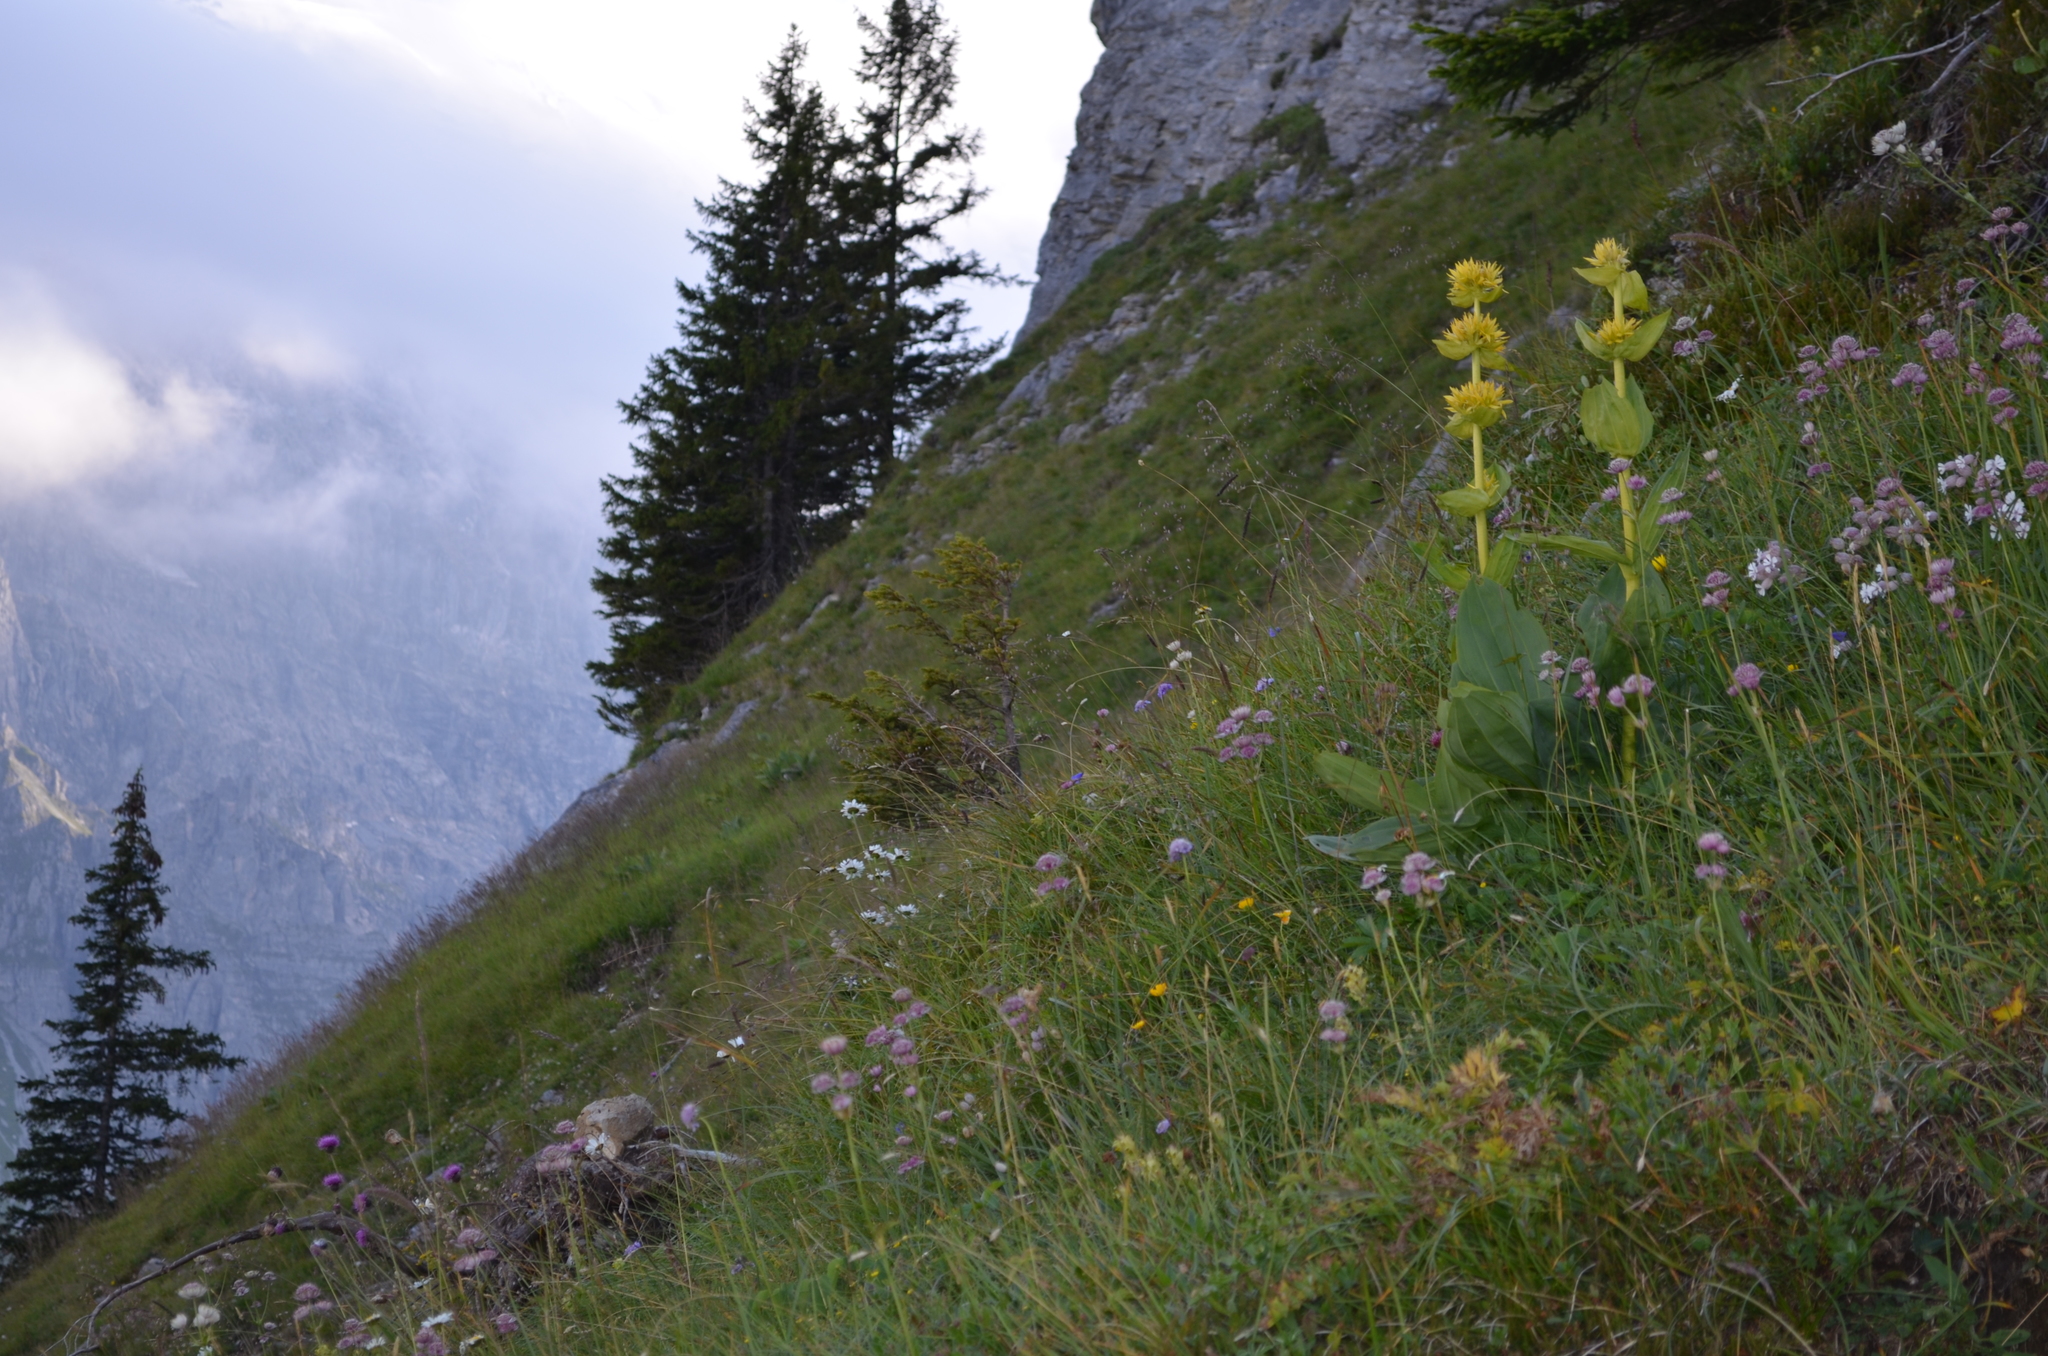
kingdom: Plantae
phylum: Tracheophyta
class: Magnoliopsida
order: Gentianales
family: Gentianaceae
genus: Gentiana
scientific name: Gentiana lutea
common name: Great yellow gentian
